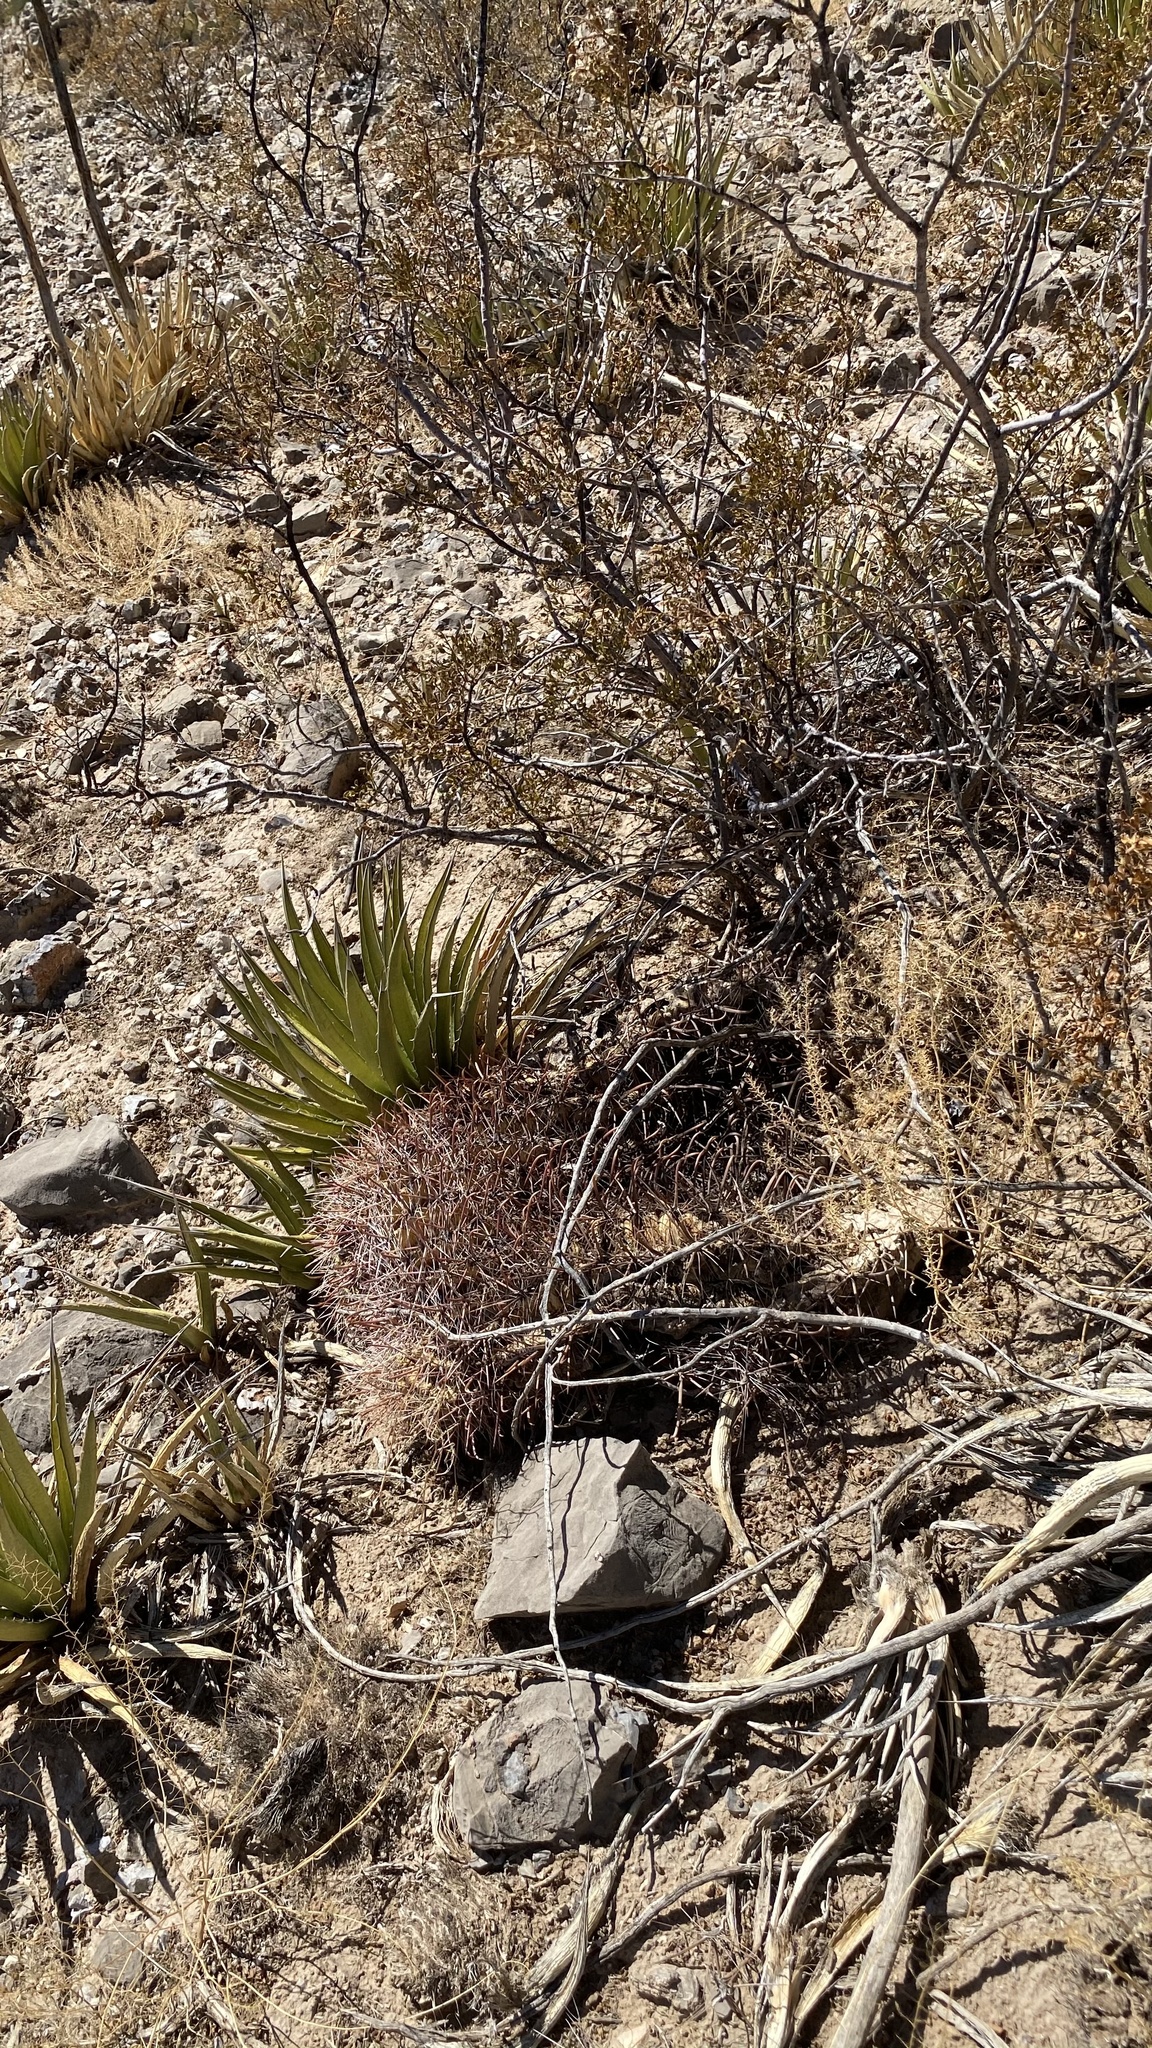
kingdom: Plantae
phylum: Tracheophyta
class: Magnoliopsida
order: Caryophyllales
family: Cactaceae
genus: Ferocactus
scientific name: Ferocactus wislizeni
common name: Candy barrel cactus
